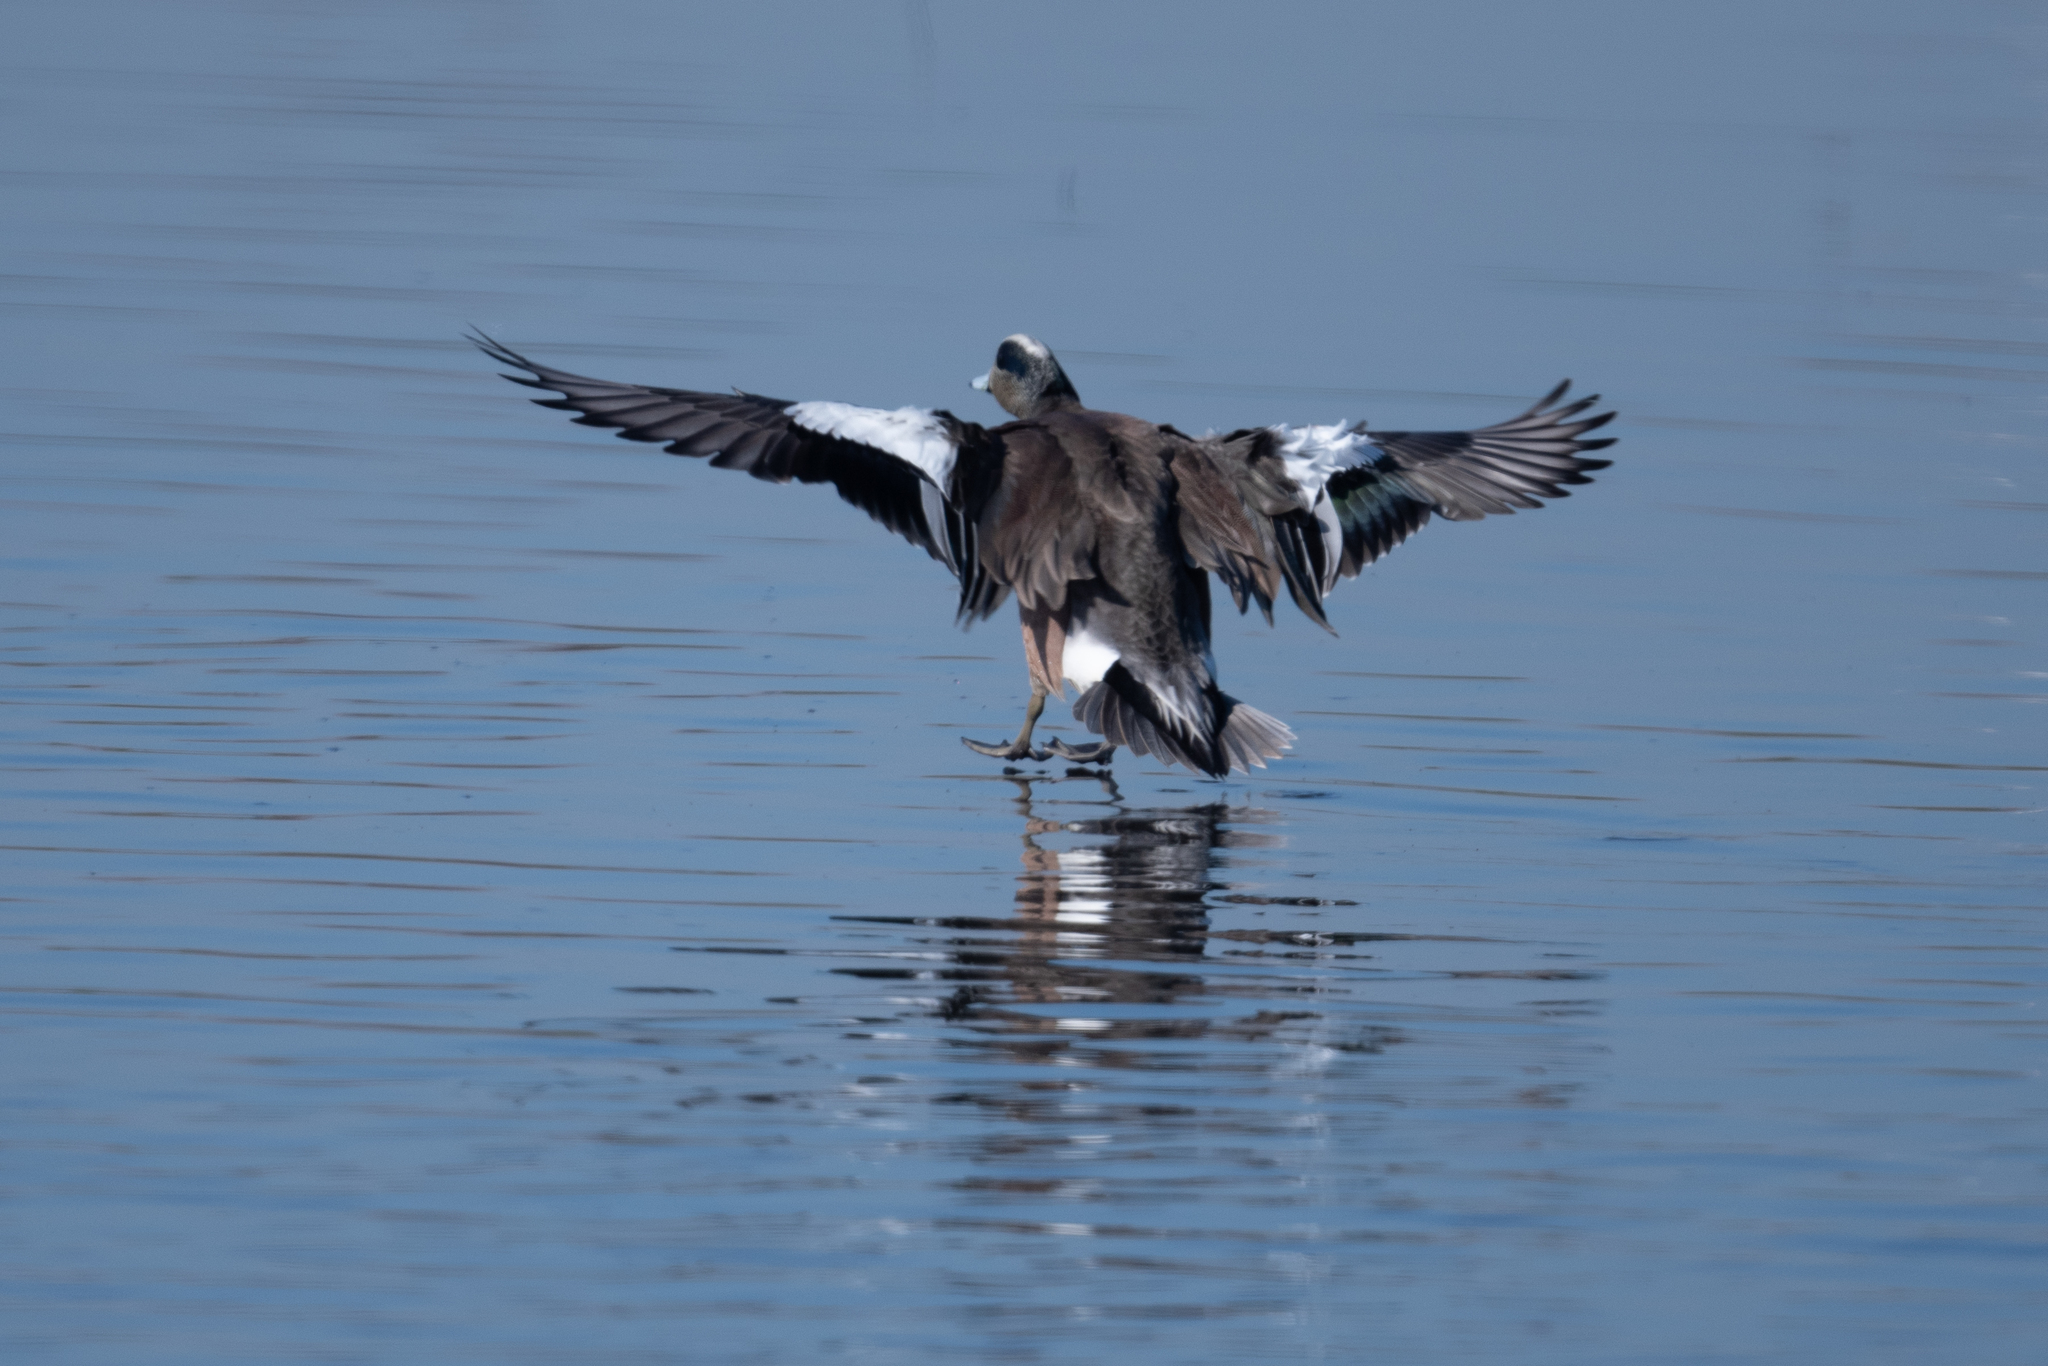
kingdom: Animalia
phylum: Chordata
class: Aves
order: Anseriformes
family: Anatidae
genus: Mareca
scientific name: Mareca americana
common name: American wigeon
